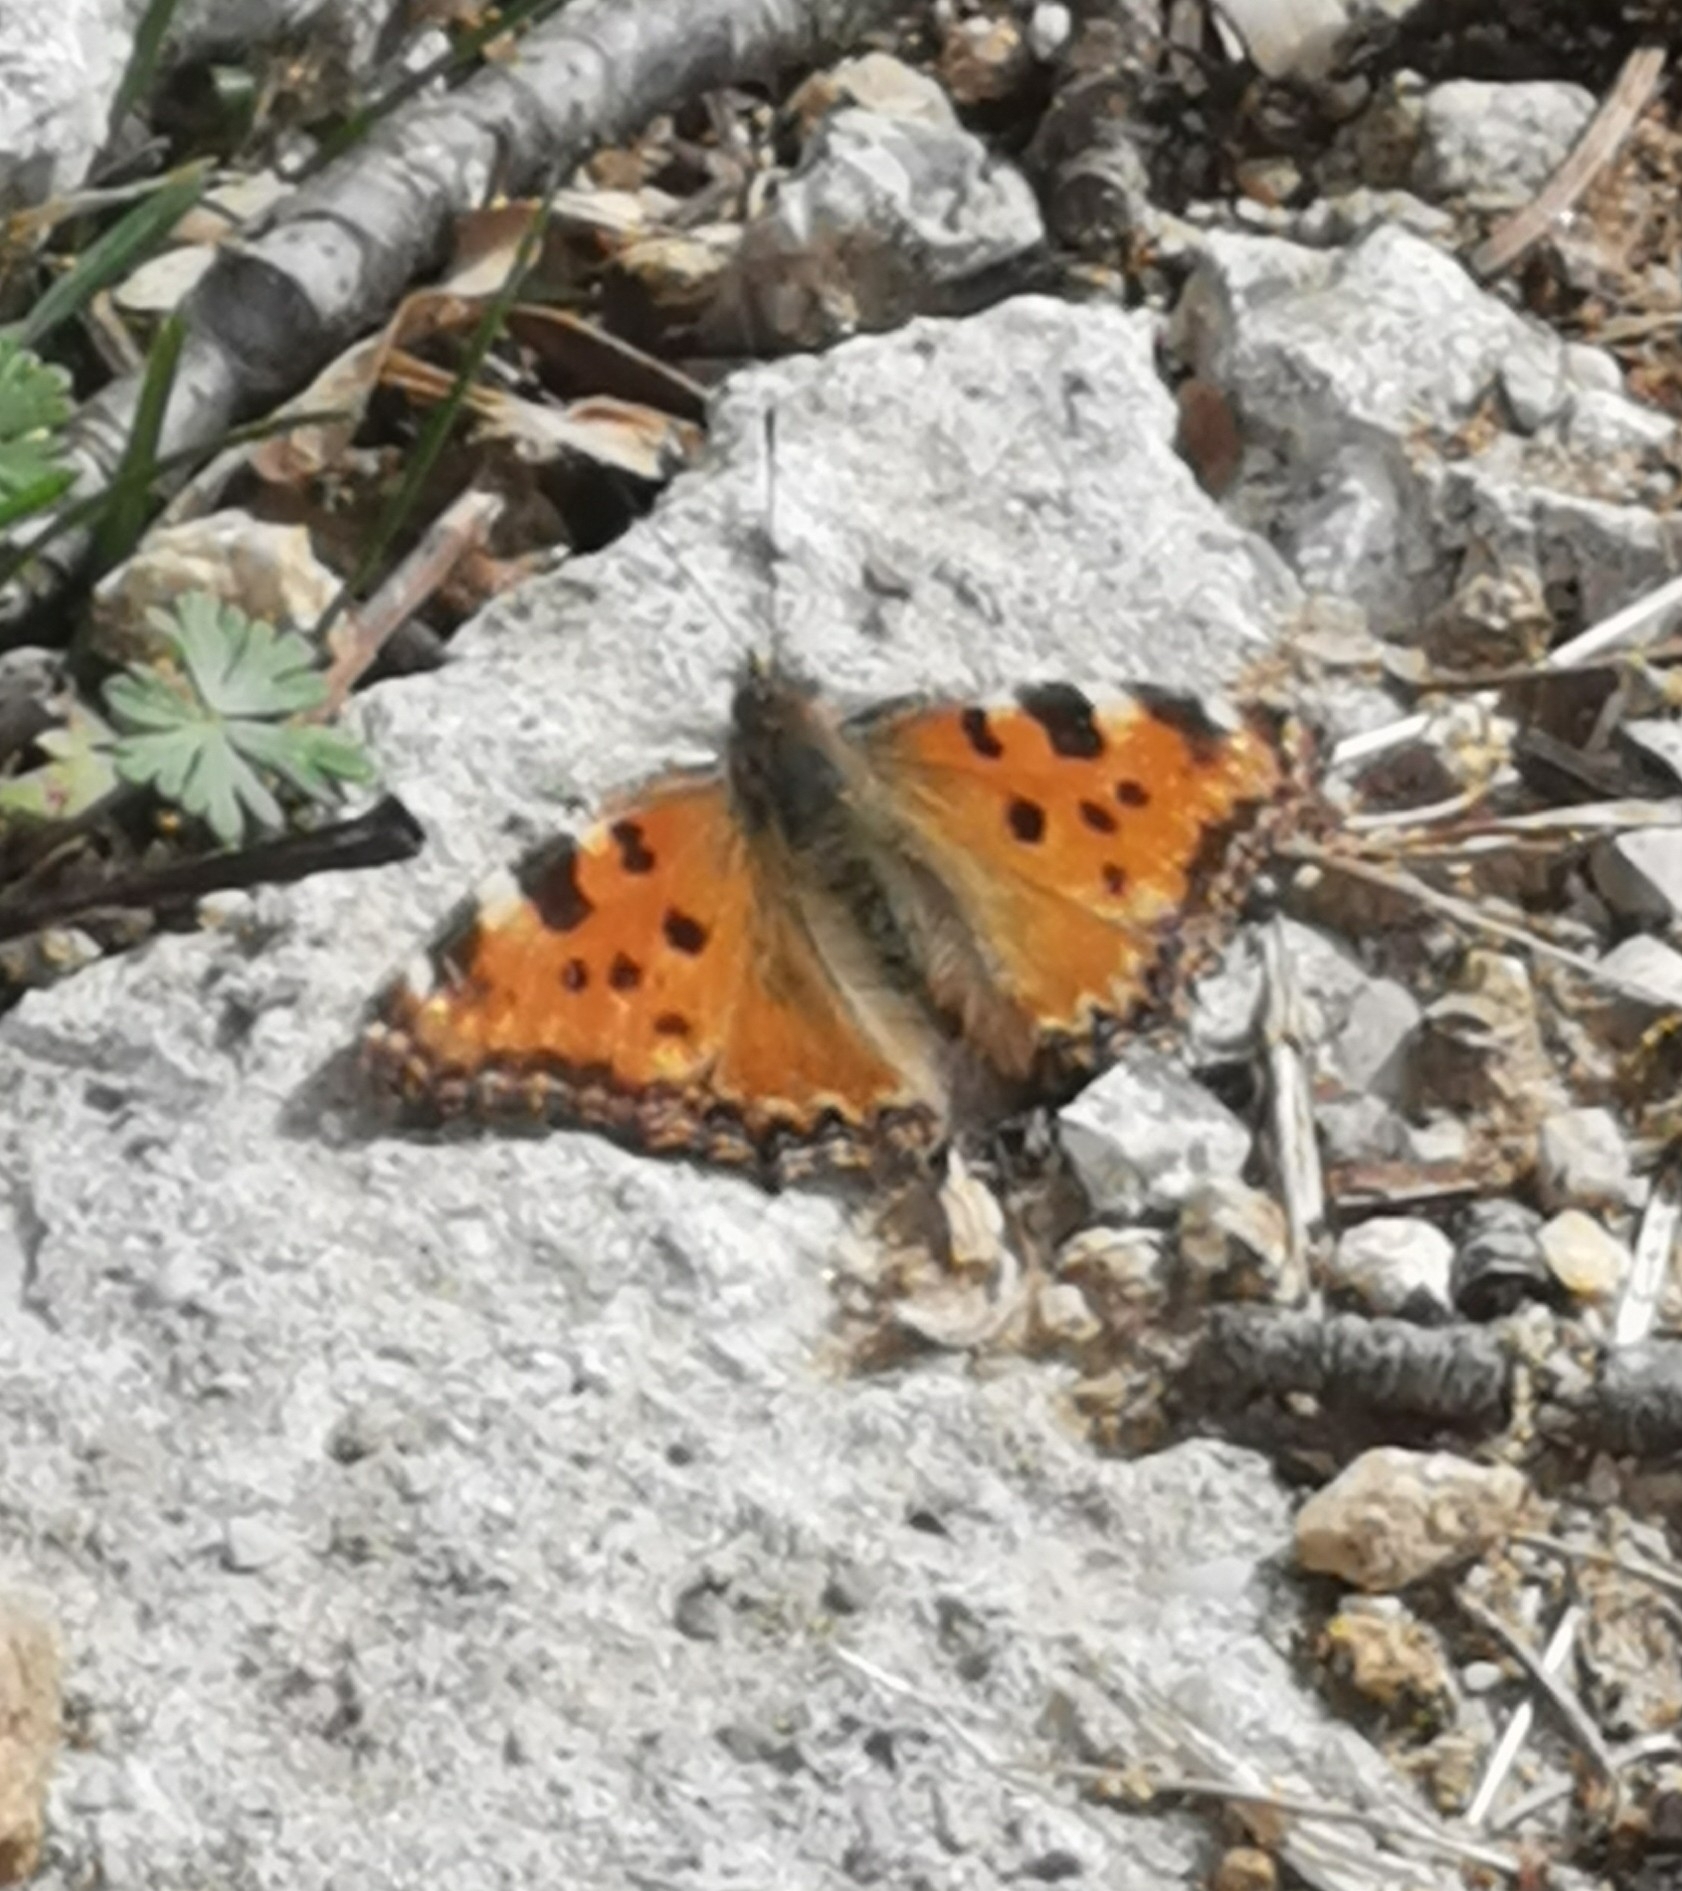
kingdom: Animalia
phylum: Arthropoda
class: Insecta
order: Lepidoptera
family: Nymphalidae
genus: Nymphalis
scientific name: Nymphalis polychloros
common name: Large tortoiseshell
